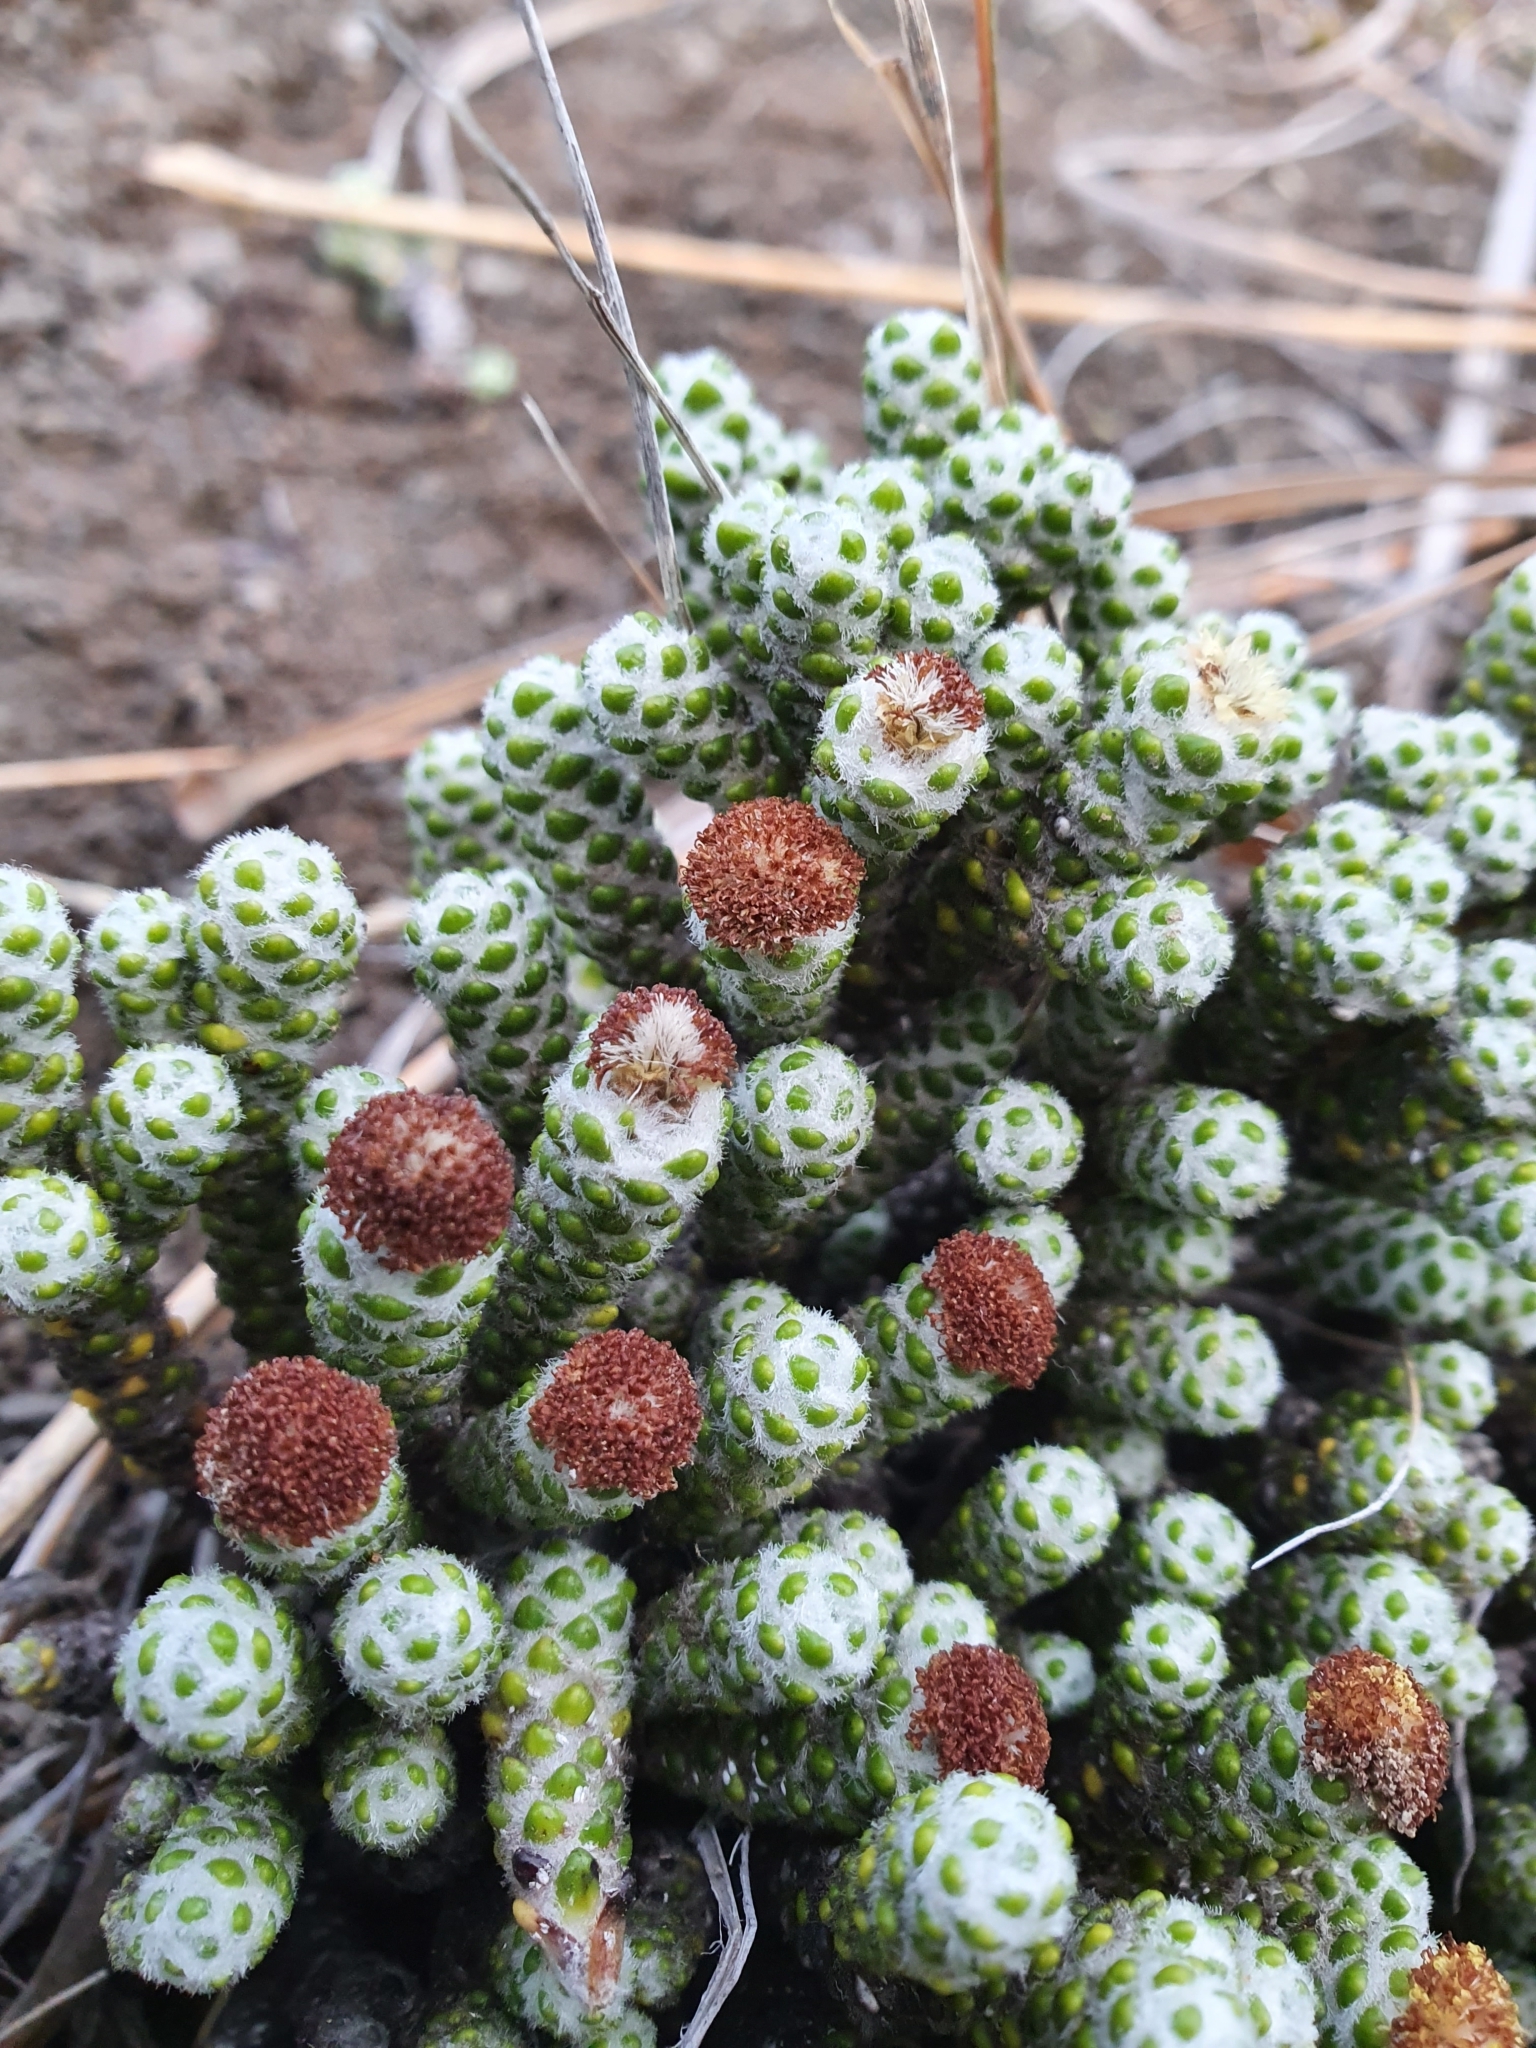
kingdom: Plantae
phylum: Tracheophyta
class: Magnoliopsida
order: Asterales
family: Asteraceae
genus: Ozothamnus
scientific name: Ozothamnus coralloides
